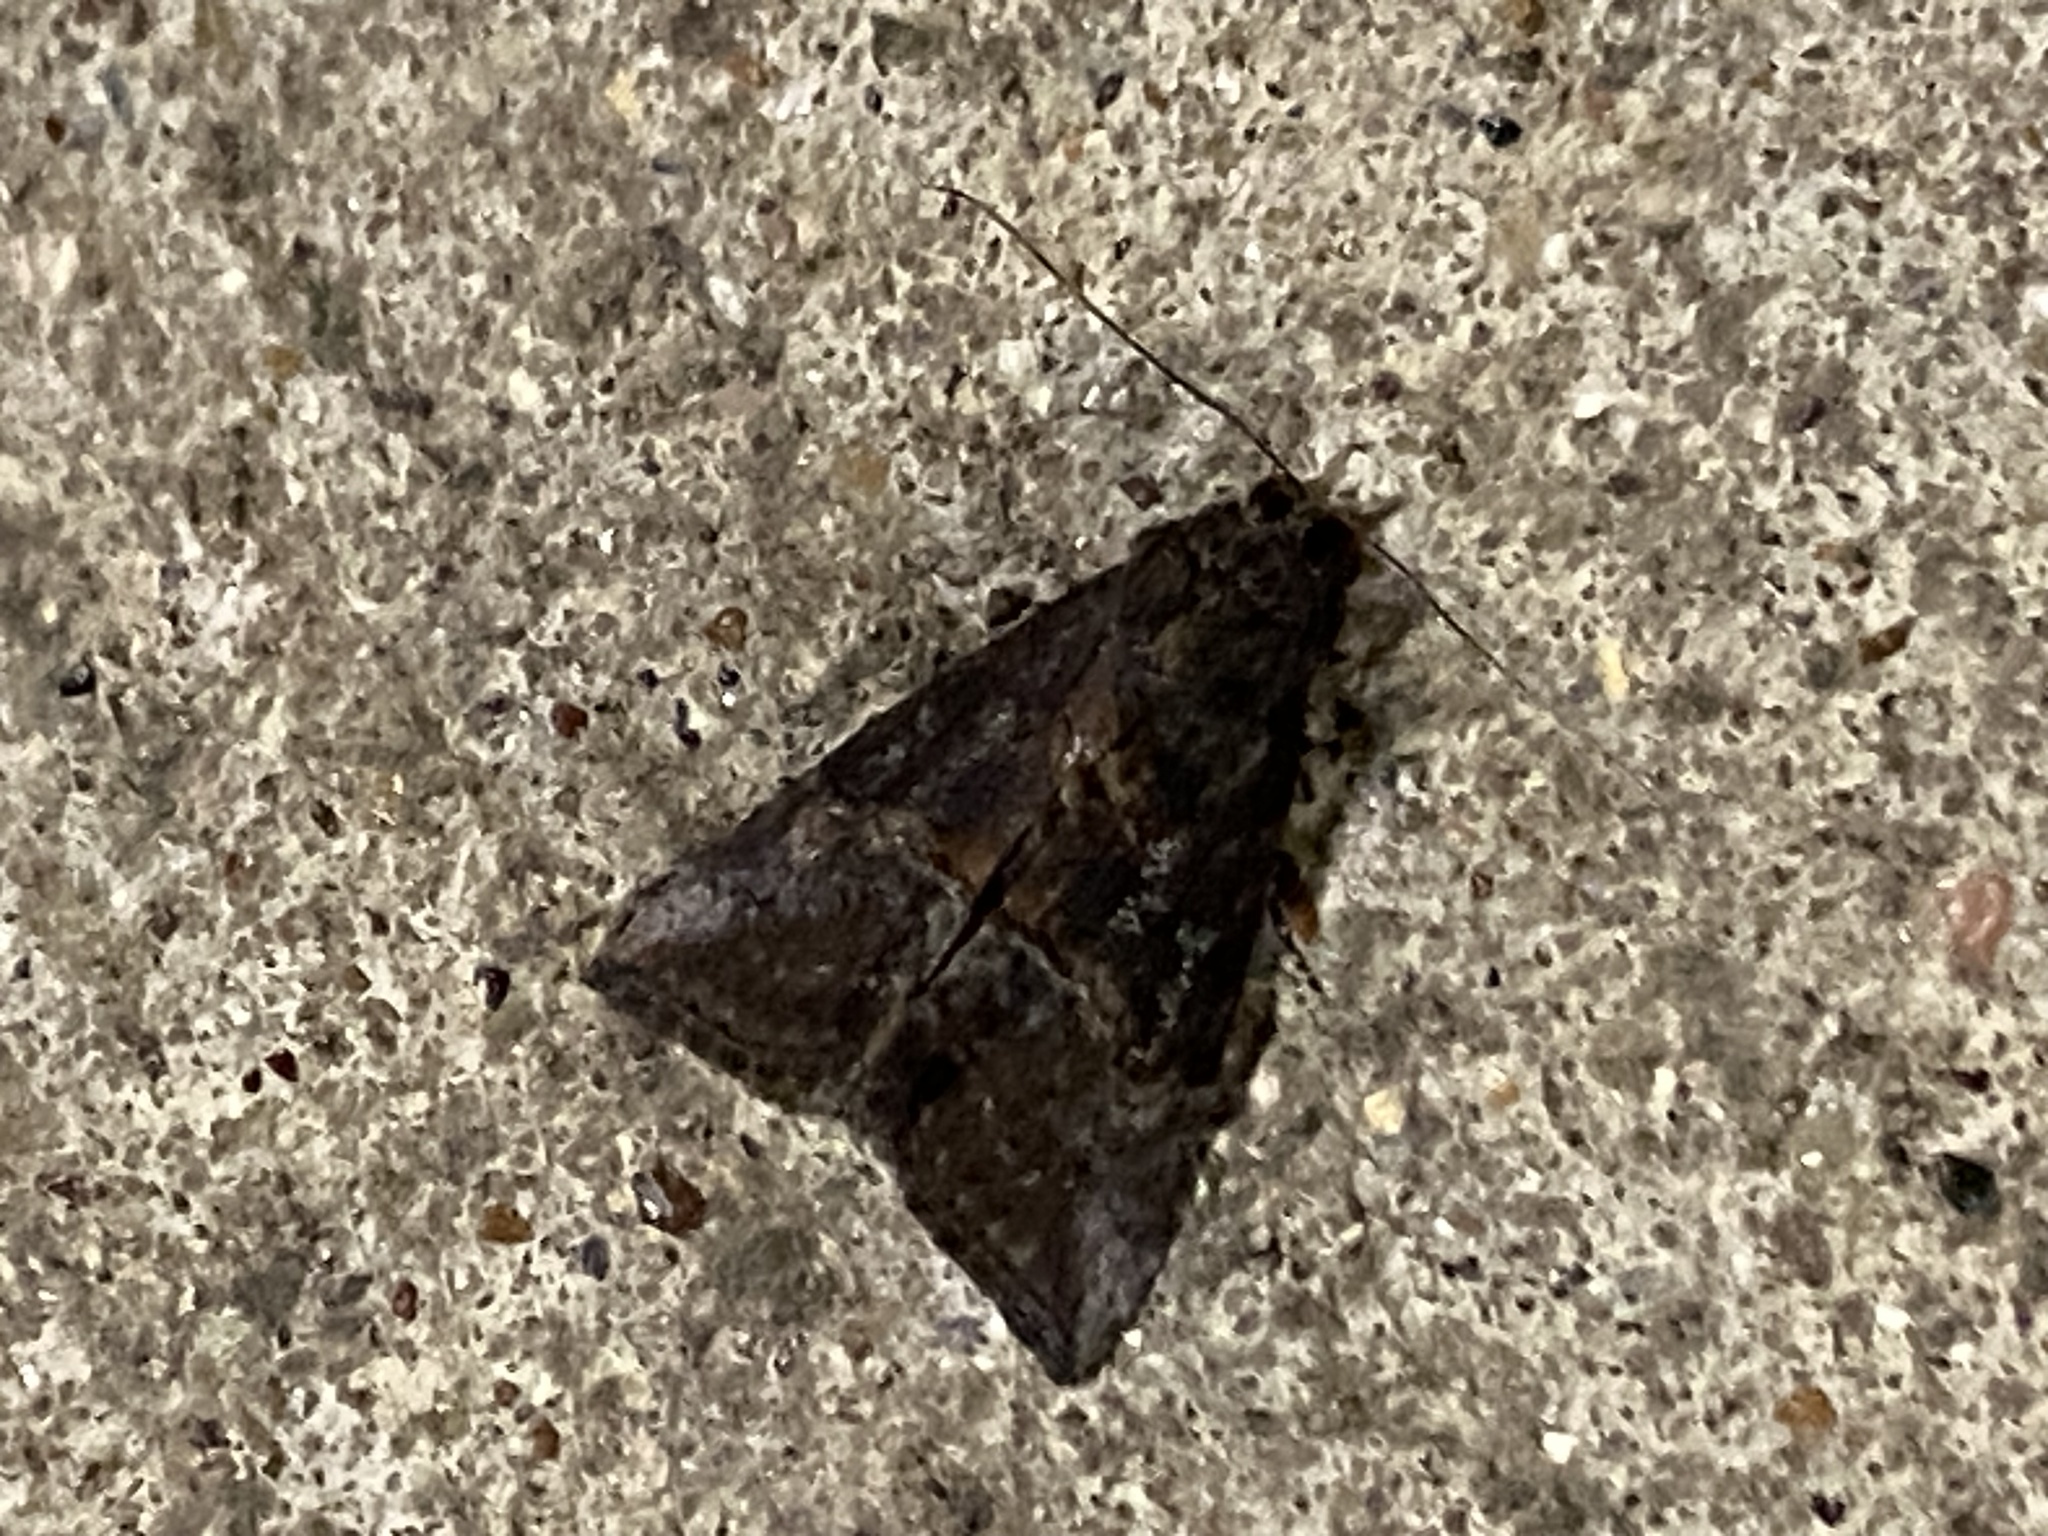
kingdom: Animalia
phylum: Arthropoda
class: Insecta
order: Lepidoptera
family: Erebidae
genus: Hypena
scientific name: Hypena scabra
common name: Green cloverworm
